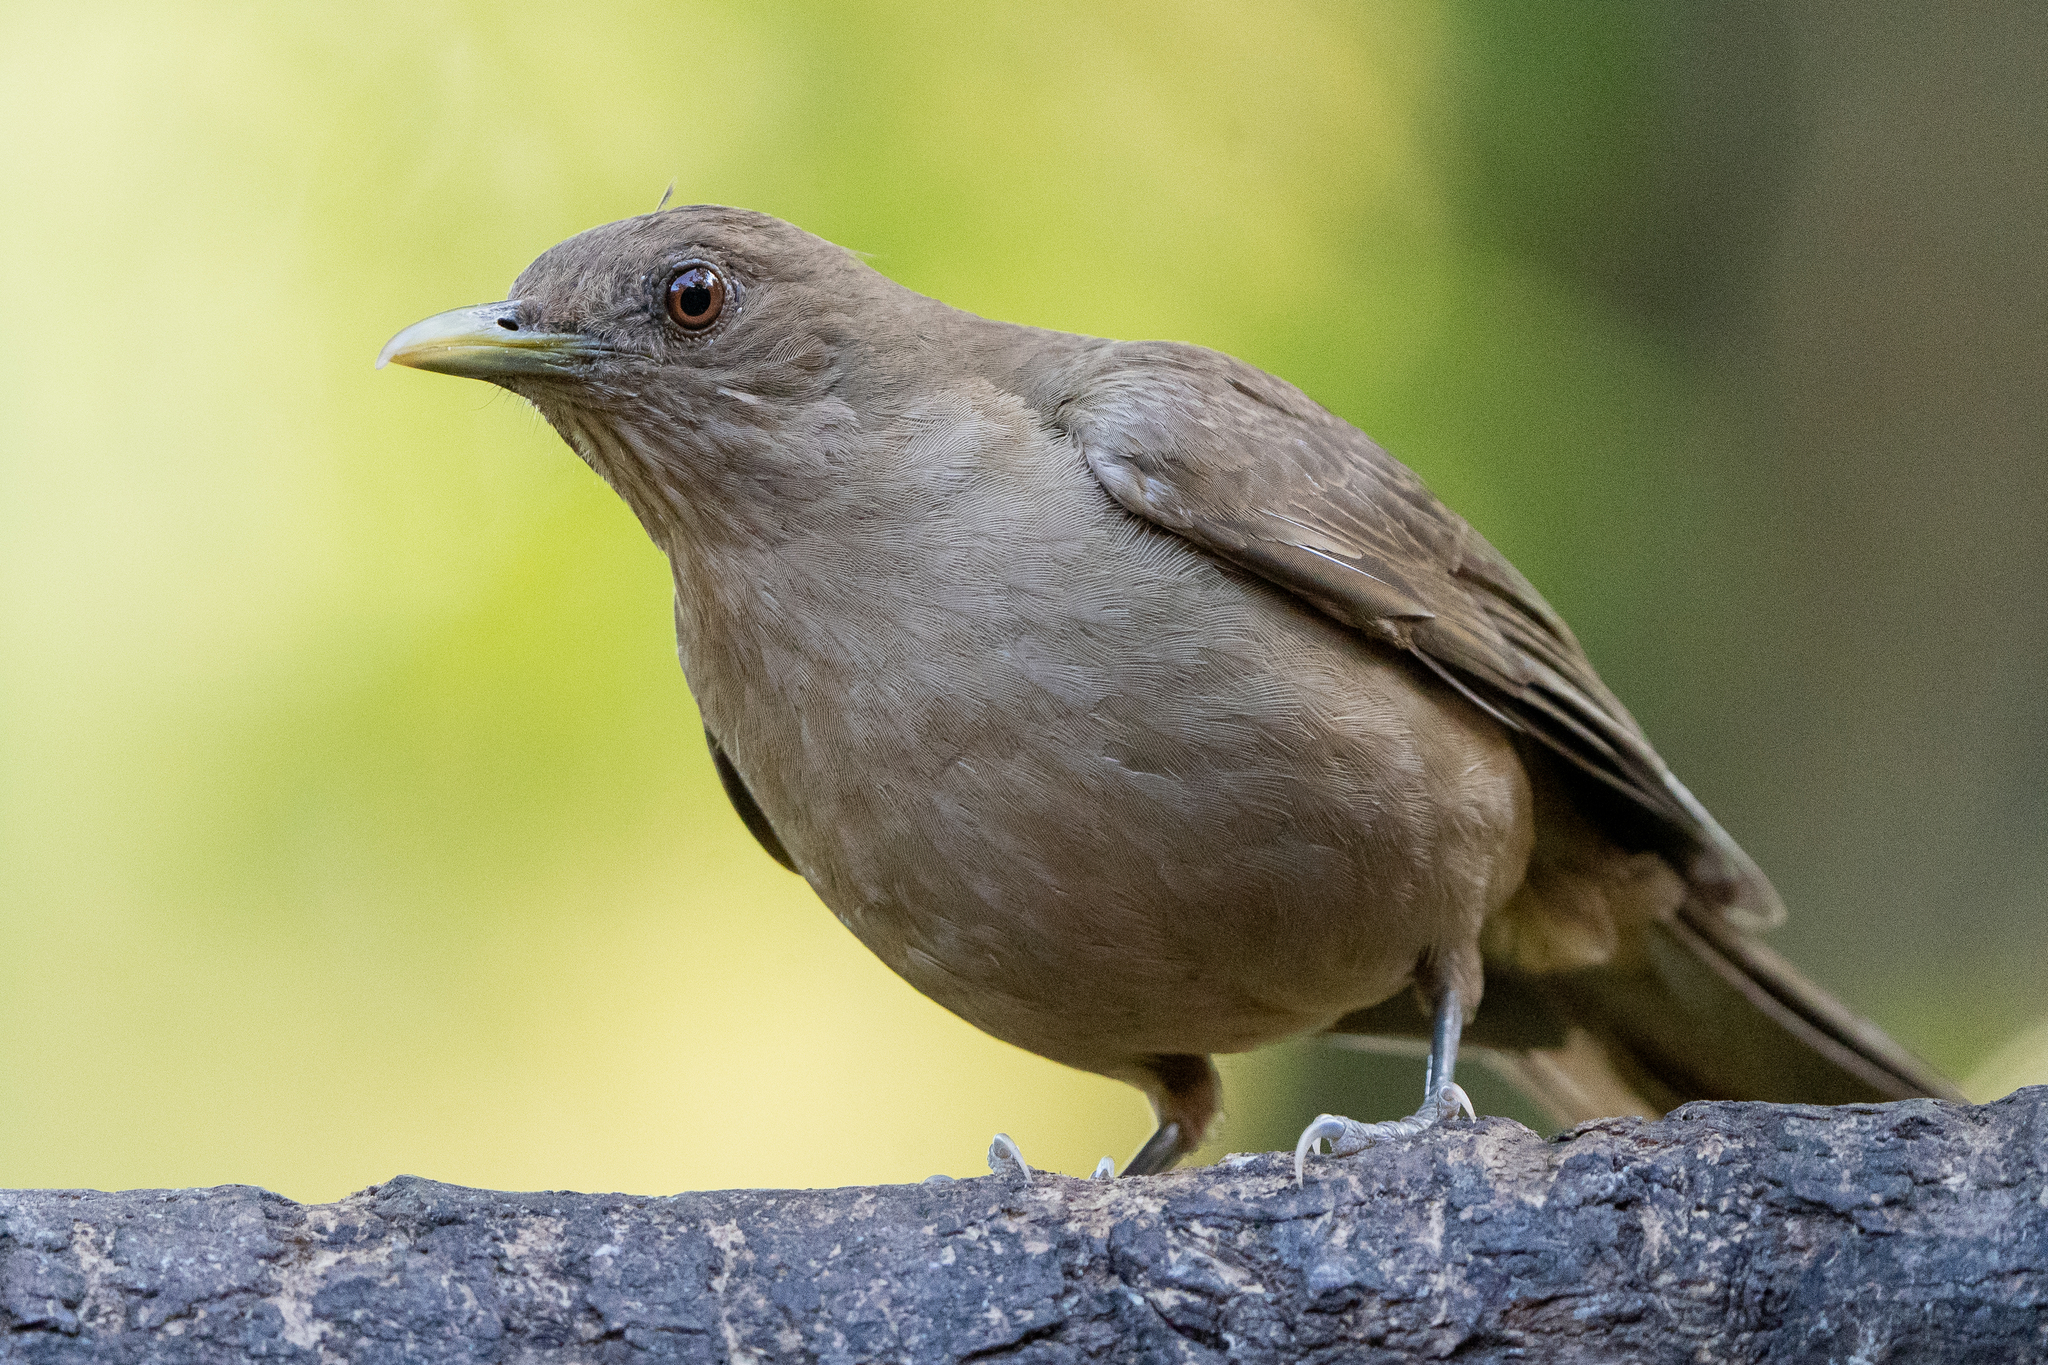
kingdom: Animalia
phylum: Chordata
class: Aves
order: Passeriformes
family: Turdidae
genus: Turdus
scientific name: Turdus grayi
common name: Clay-colored thrush
